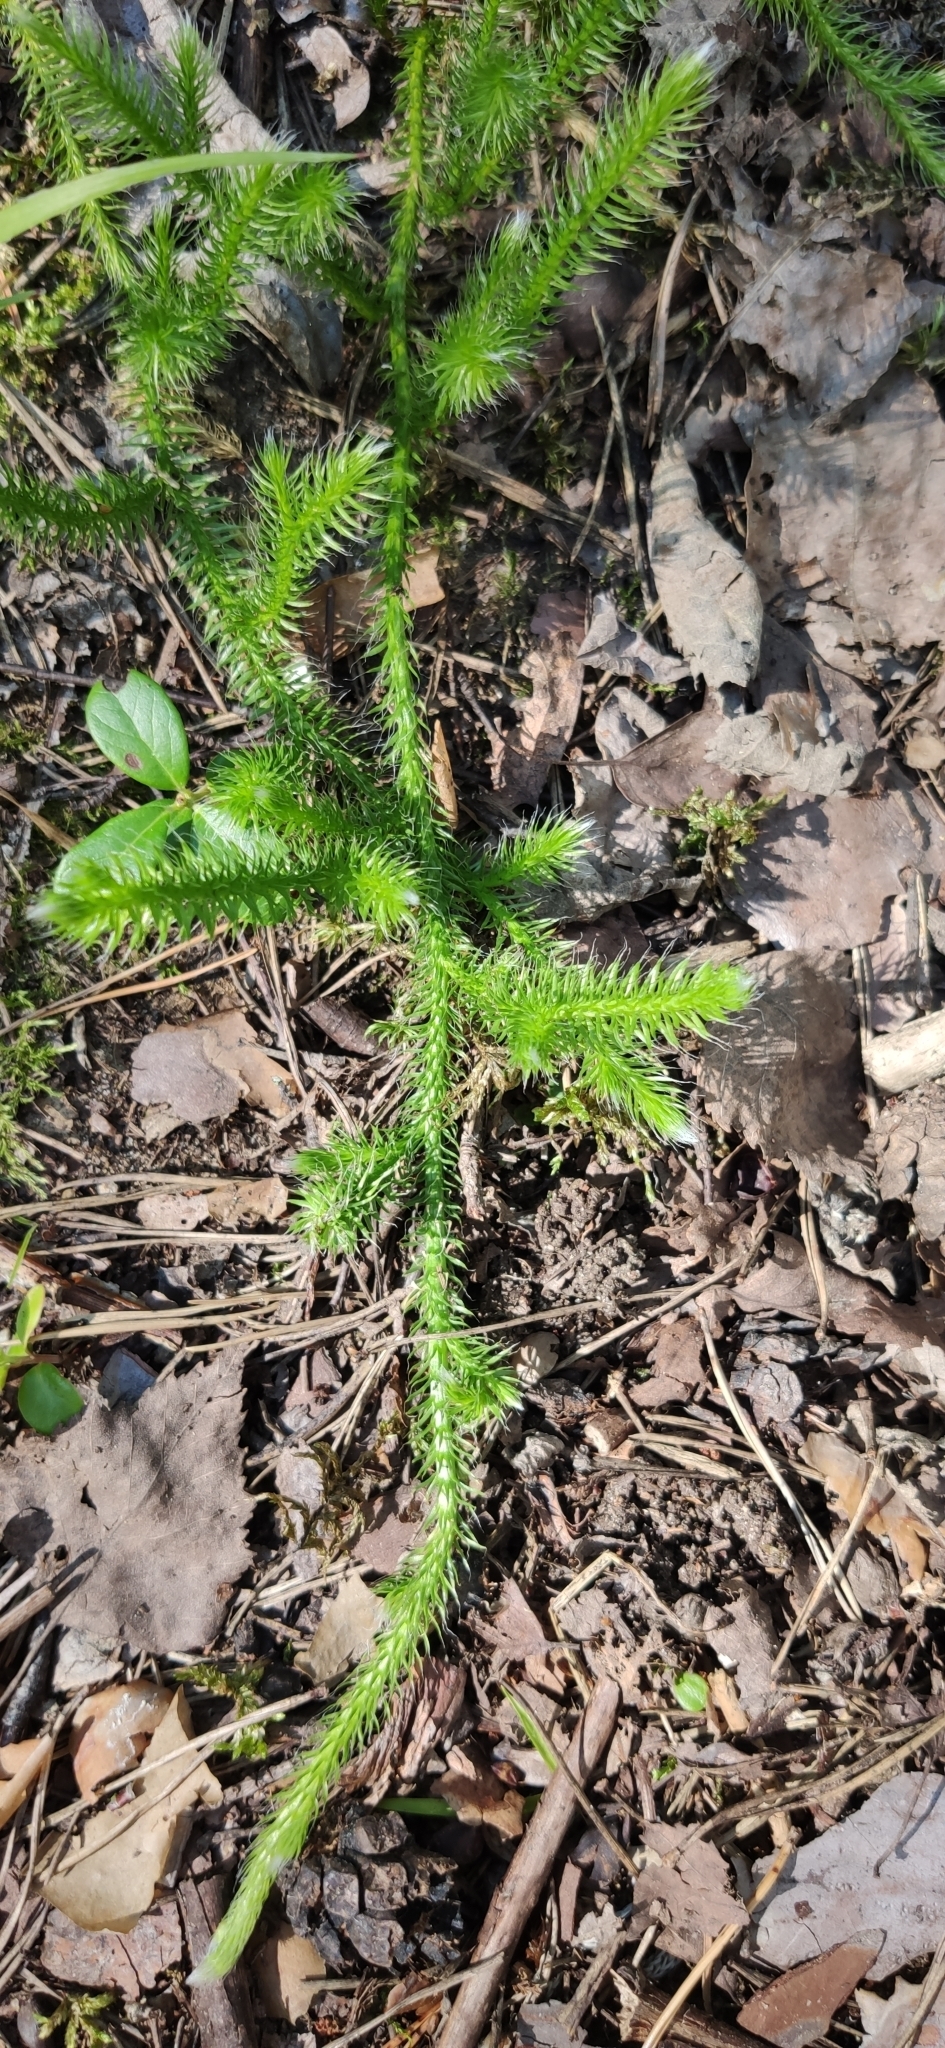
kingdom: Plantae
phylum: Tracheophyta
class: Lycopodiopsida
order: Lycopodiales
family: Lycopodiaceae
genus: Lycopodium
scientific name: Lycopodium clavatum
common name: Stag's-horn clubmoss
